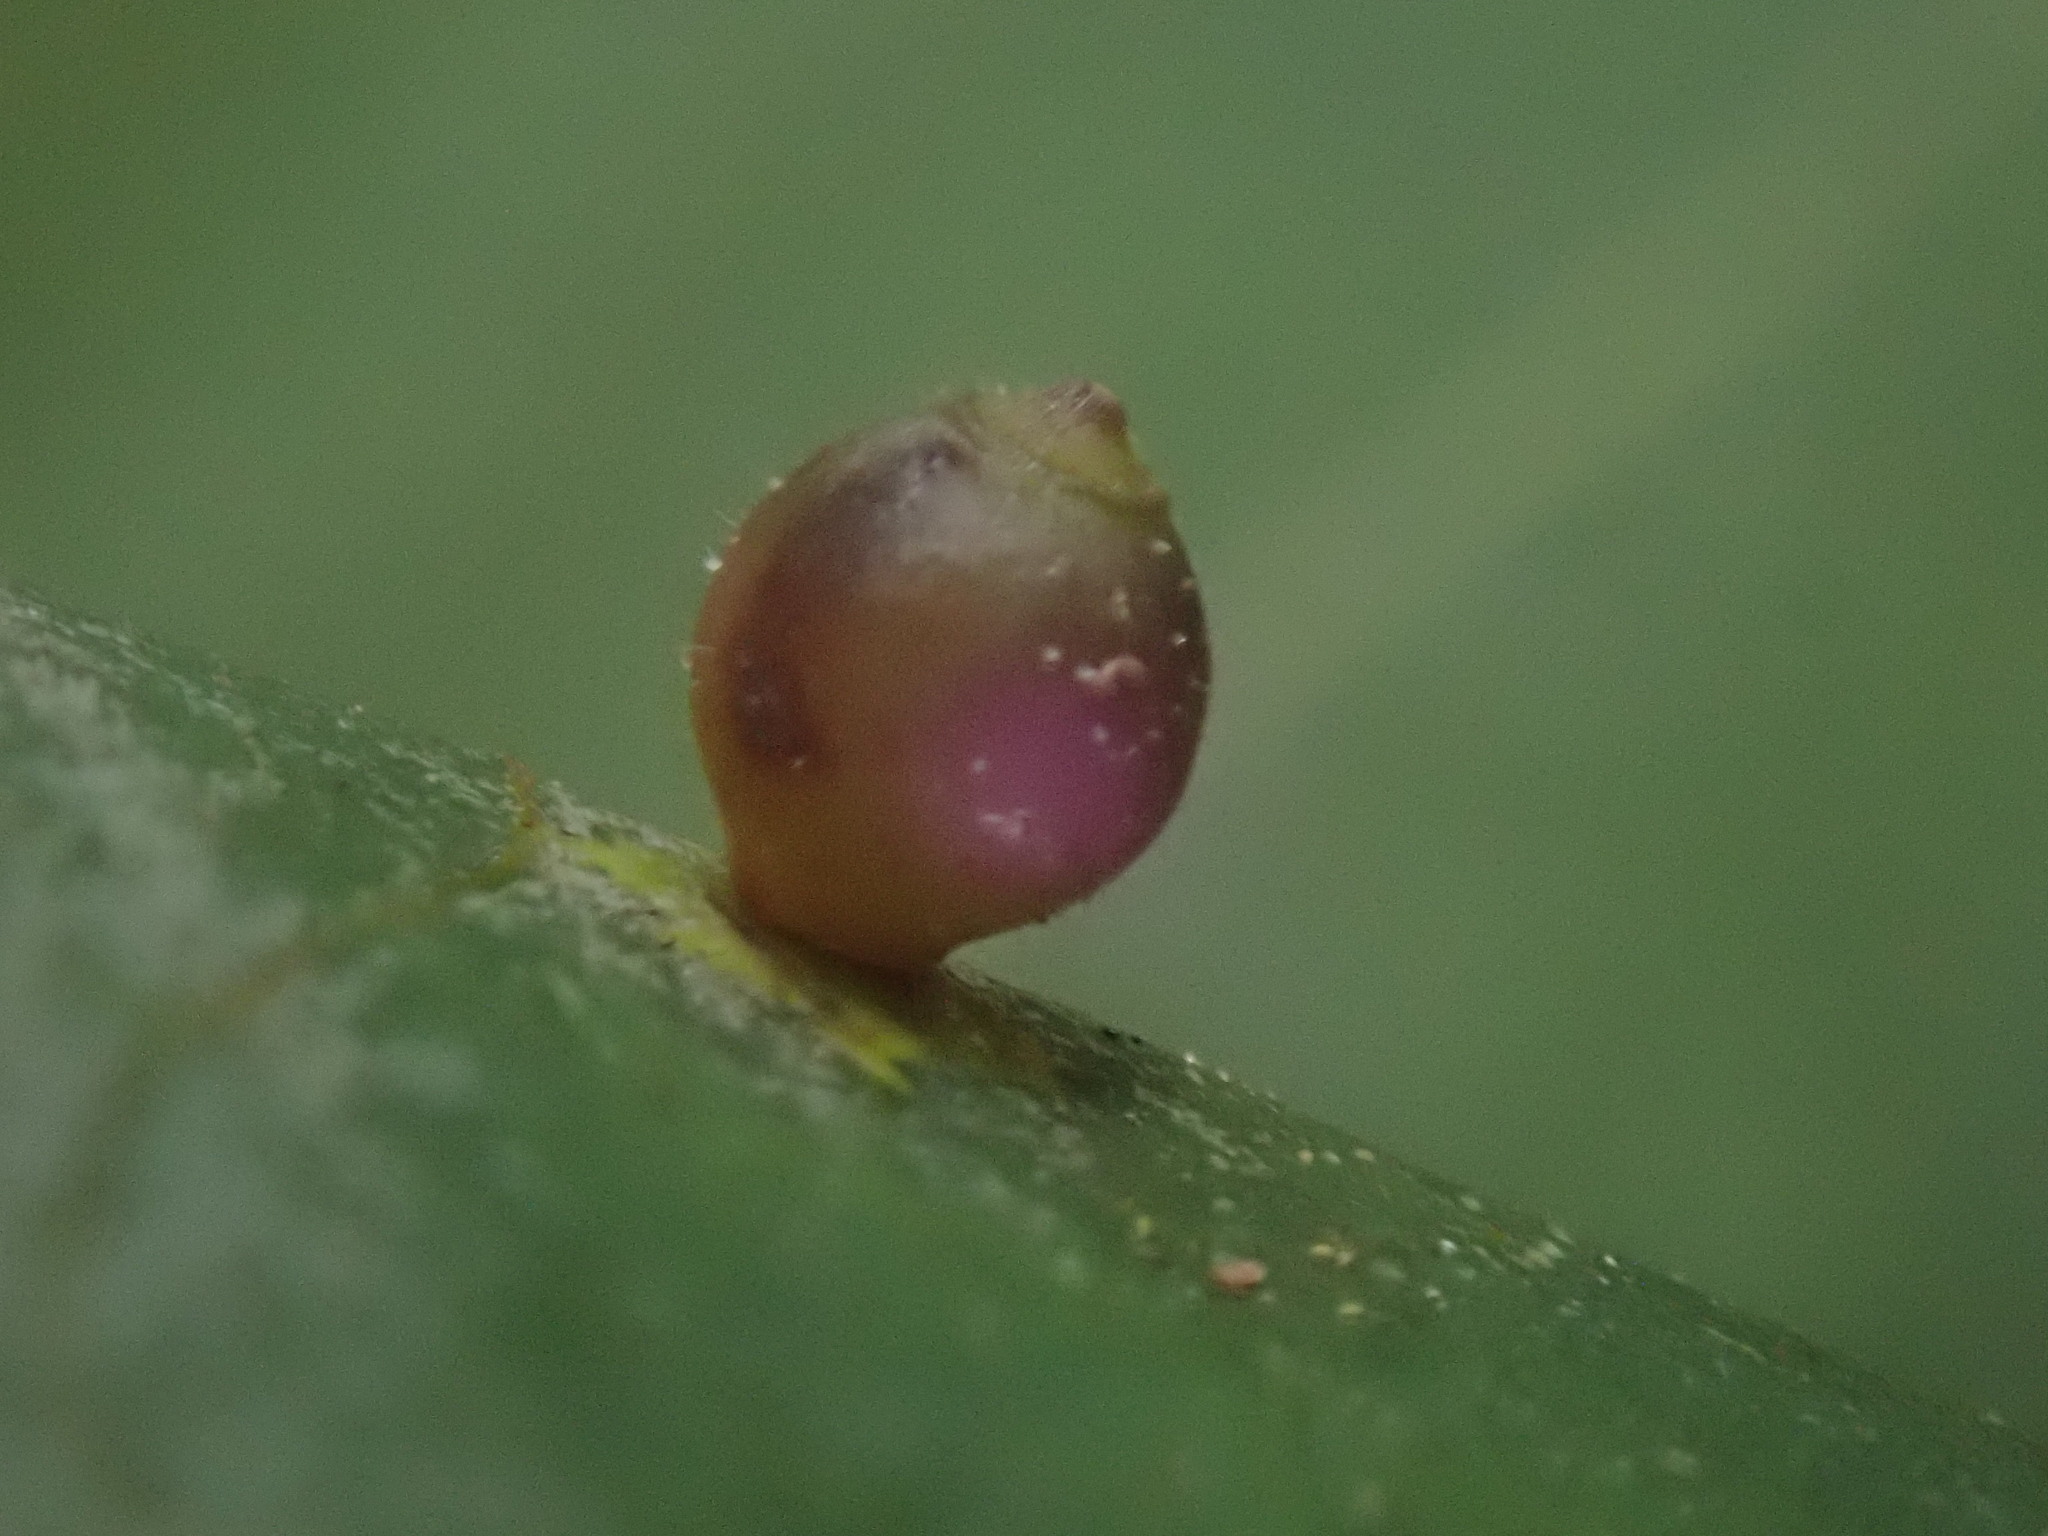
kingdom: Animalia
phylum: Arthropoda
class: Insecta
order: Diptera
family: Cecidomyiidae
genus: Caryomyia
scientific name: Caryomyia viscidolium
